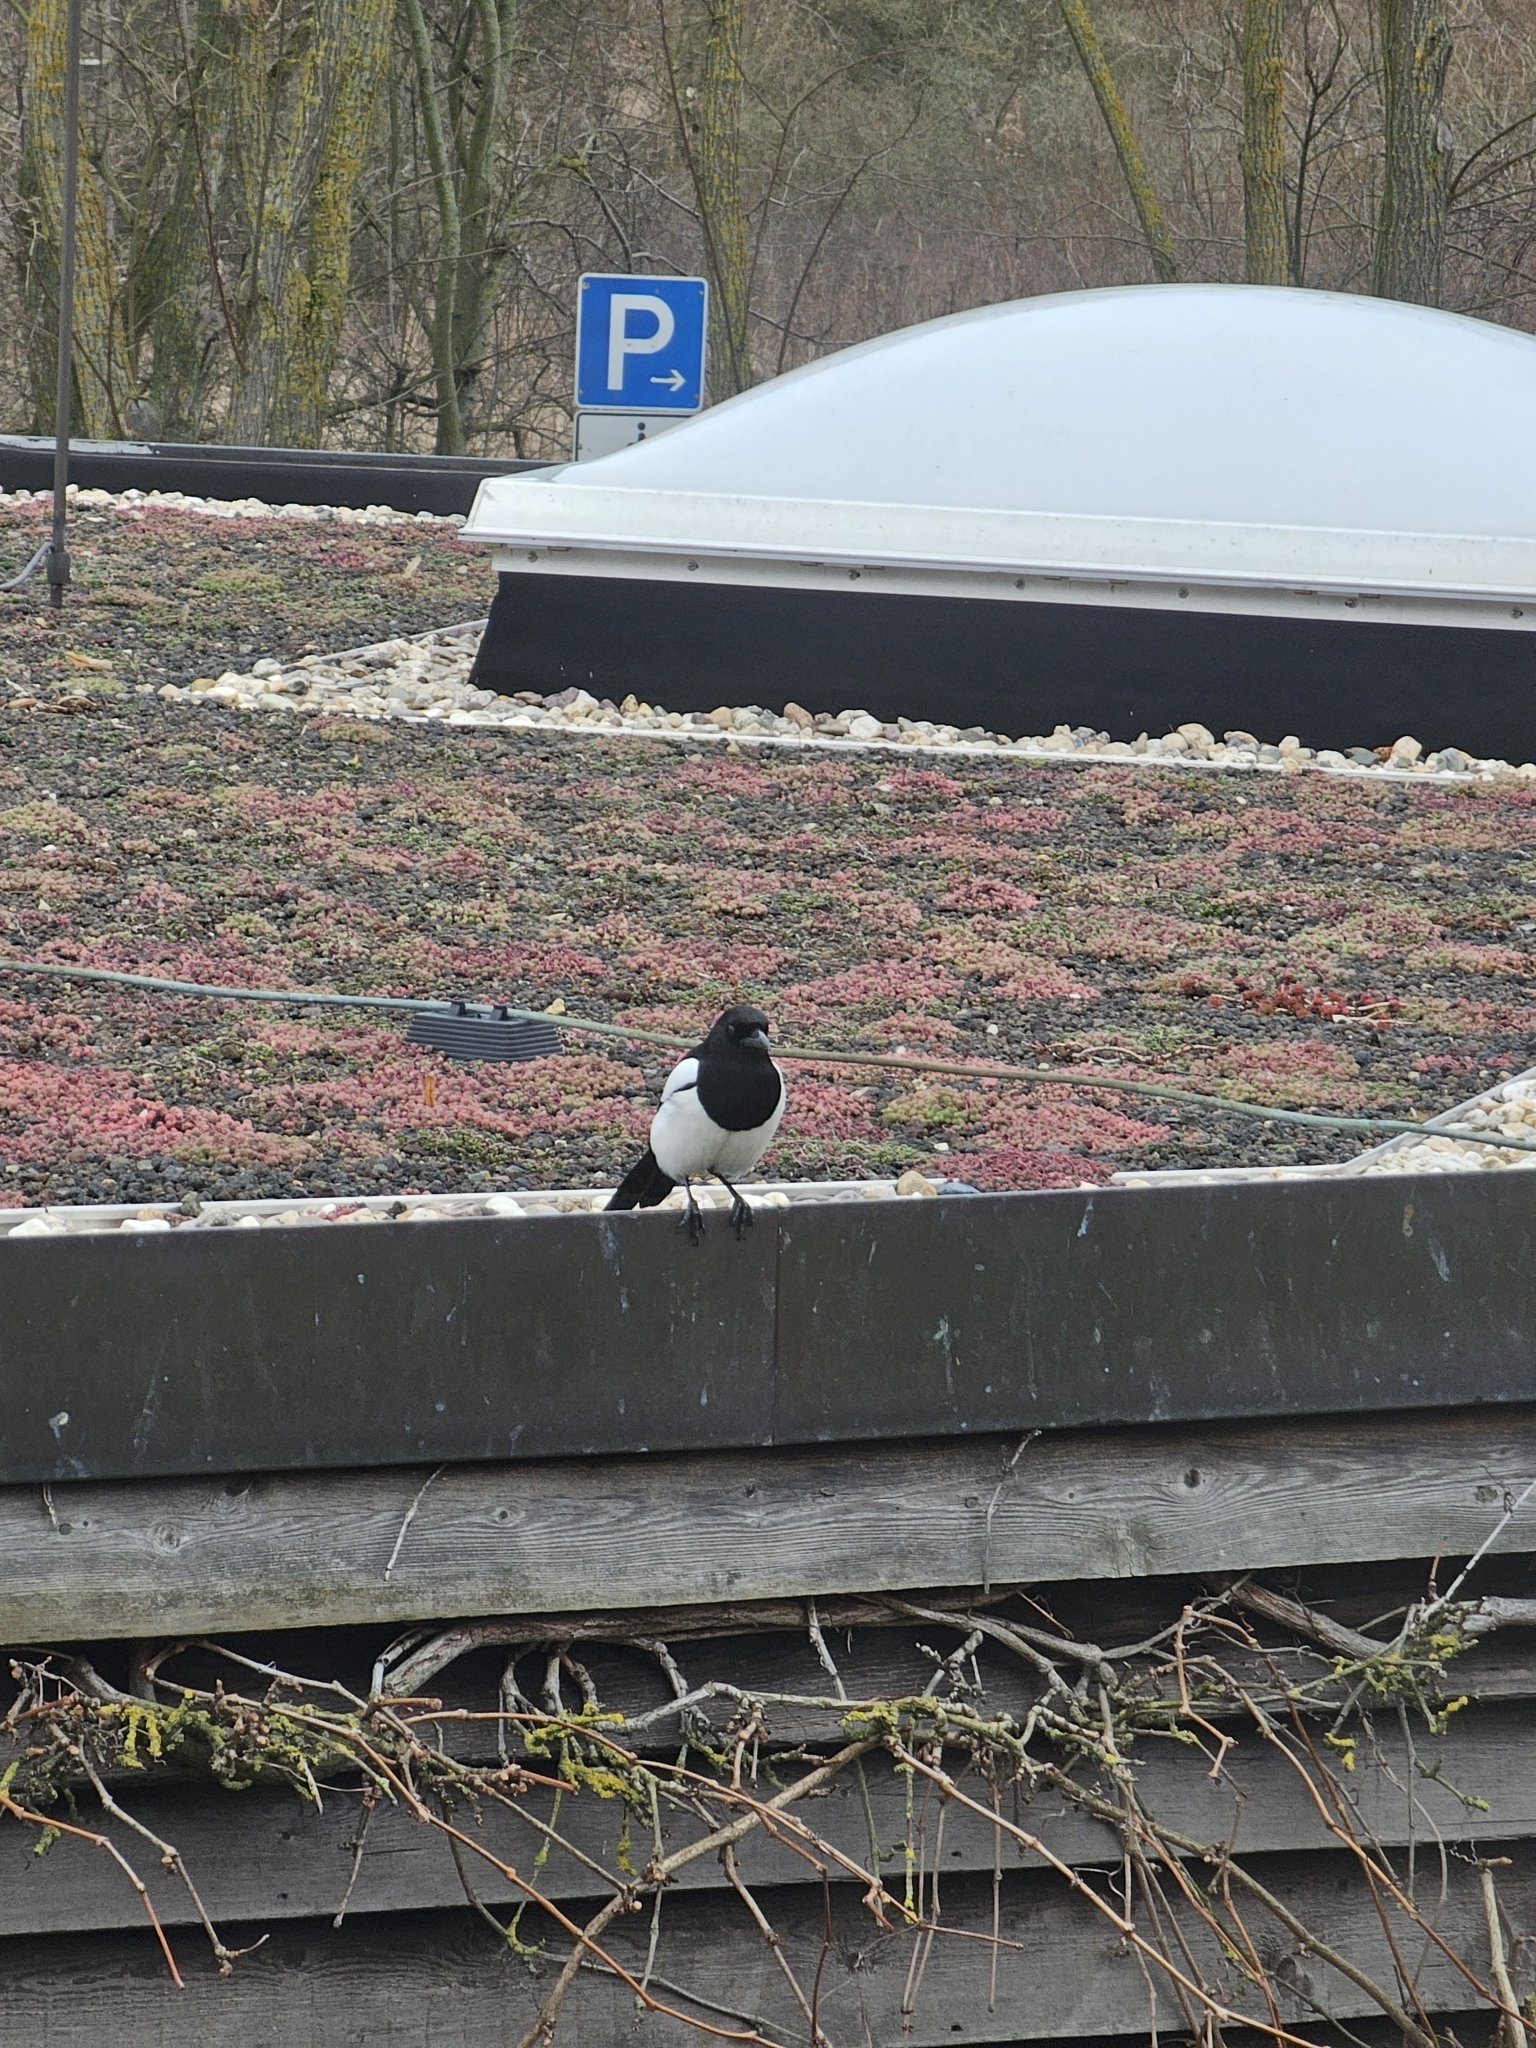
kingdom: Animalia
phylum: Chordata
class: Aves
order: Passeriformes
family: Corvidae
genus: Pica
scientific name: Pica pica
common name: Eurasian magpie
